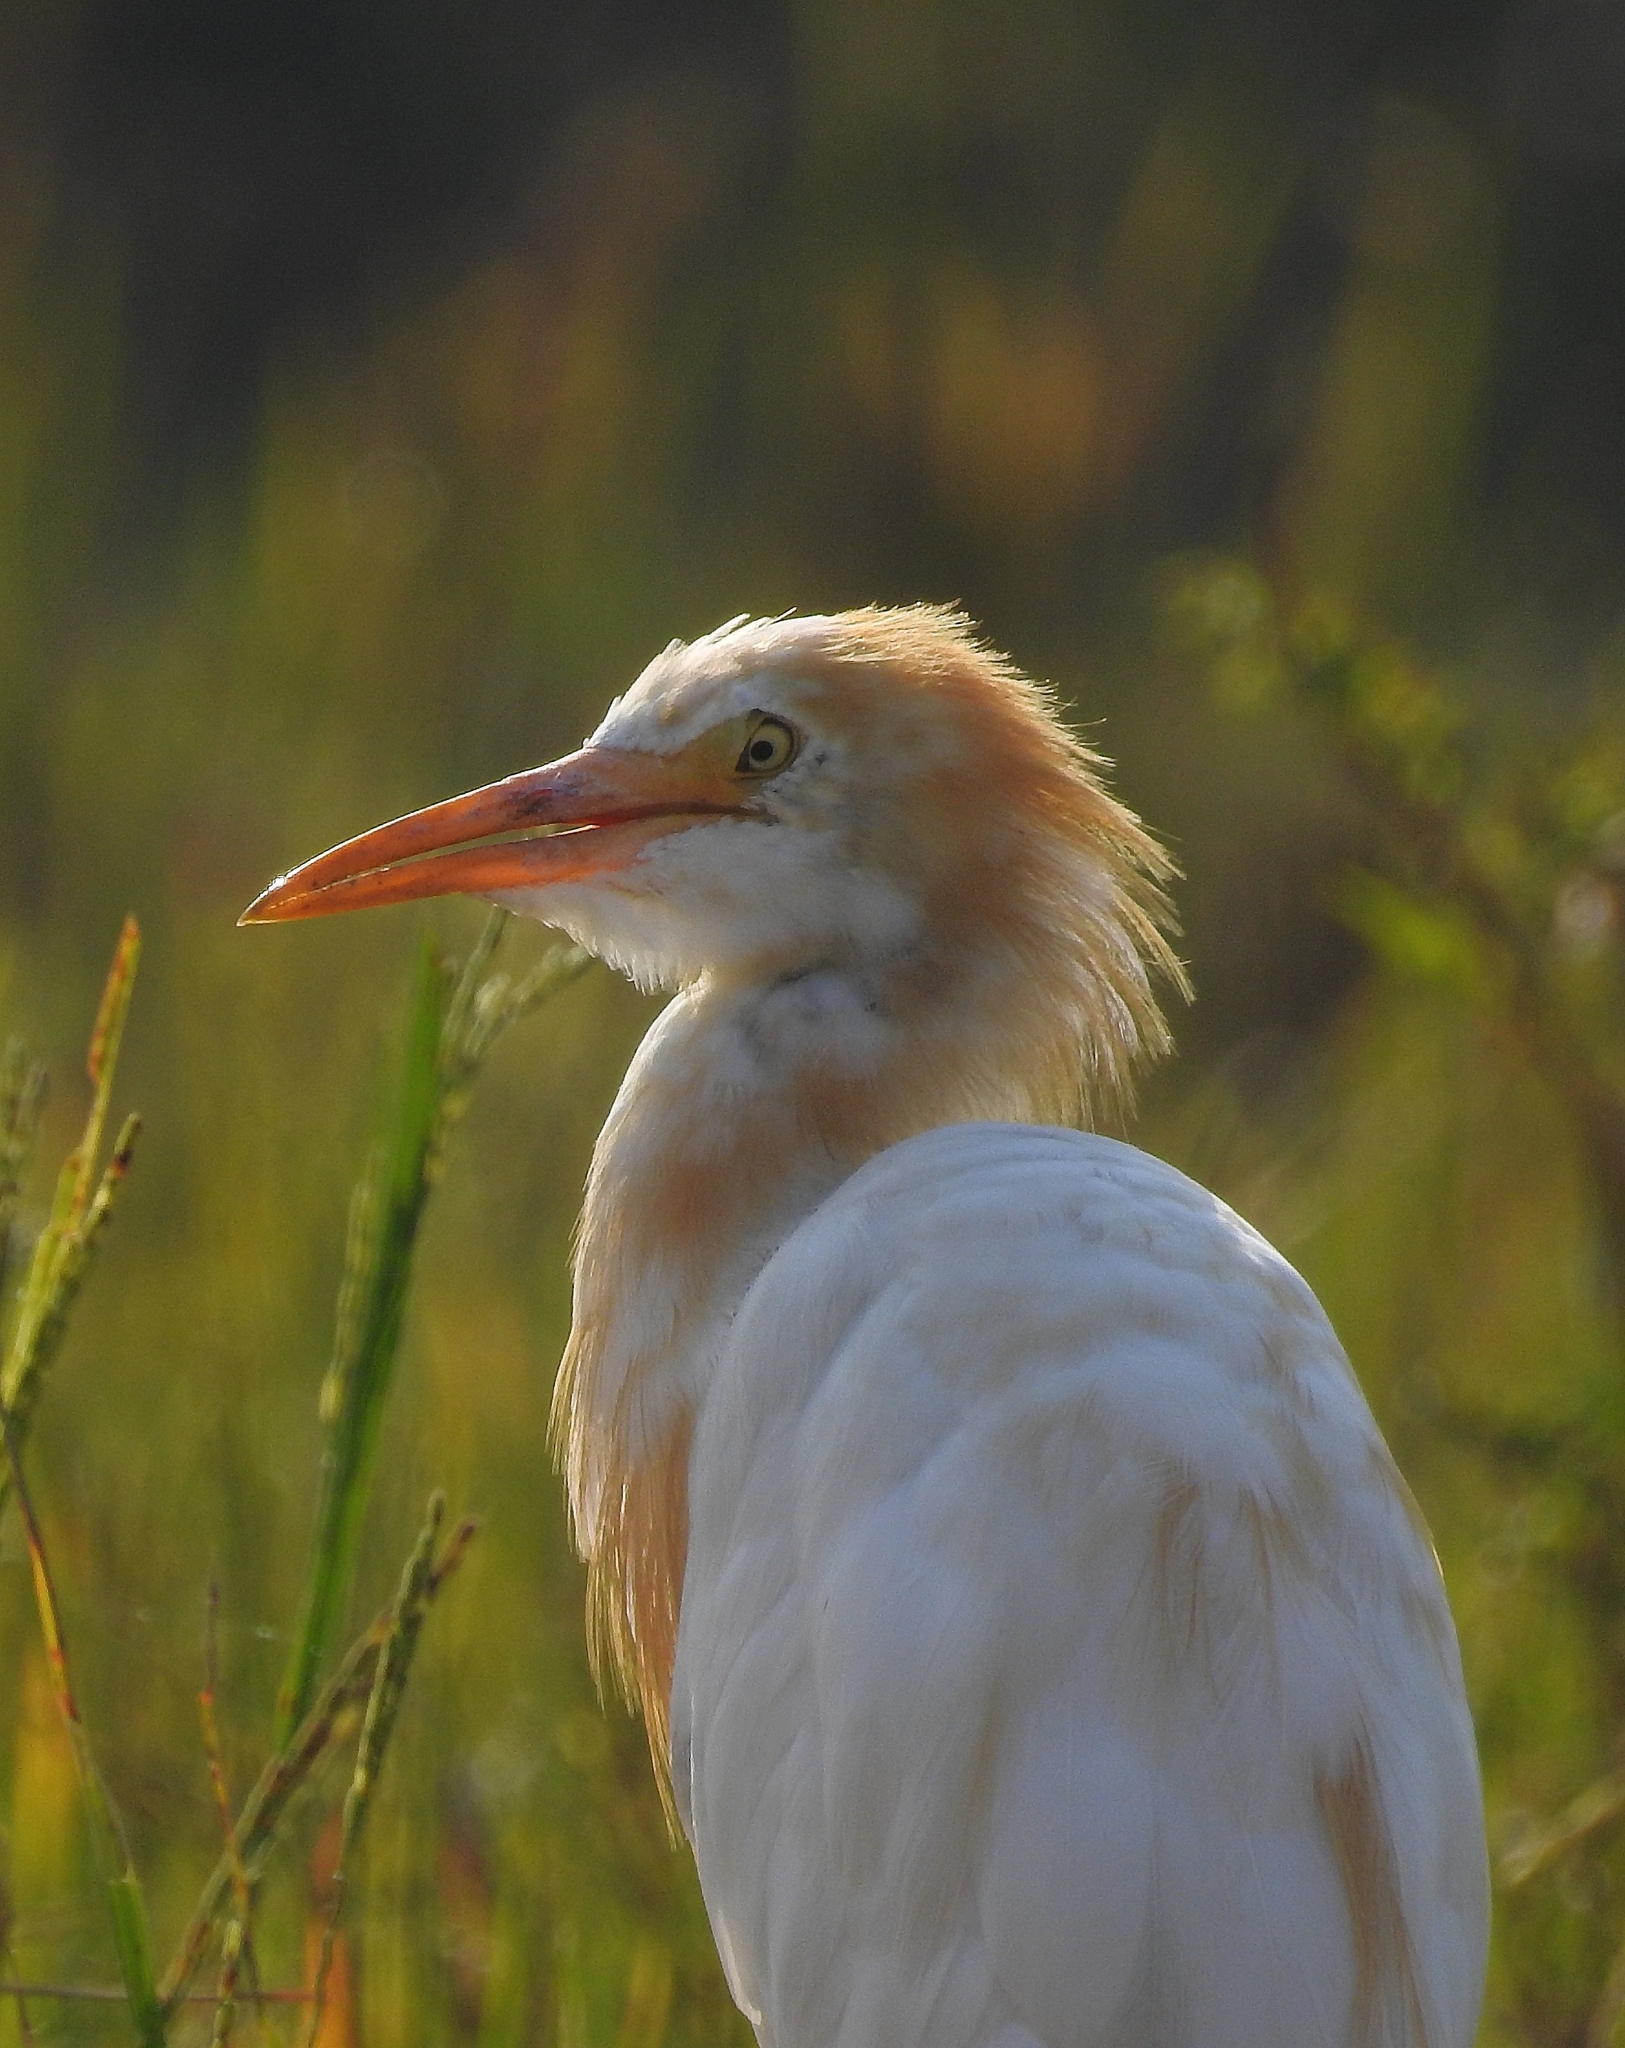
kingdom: Animalia
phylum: Chordata
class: Aves
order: Pelecaniformes
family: Ardeidae
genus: Bubulcus
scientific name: Bubulcus coromandus
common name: Eastern cattle egret
